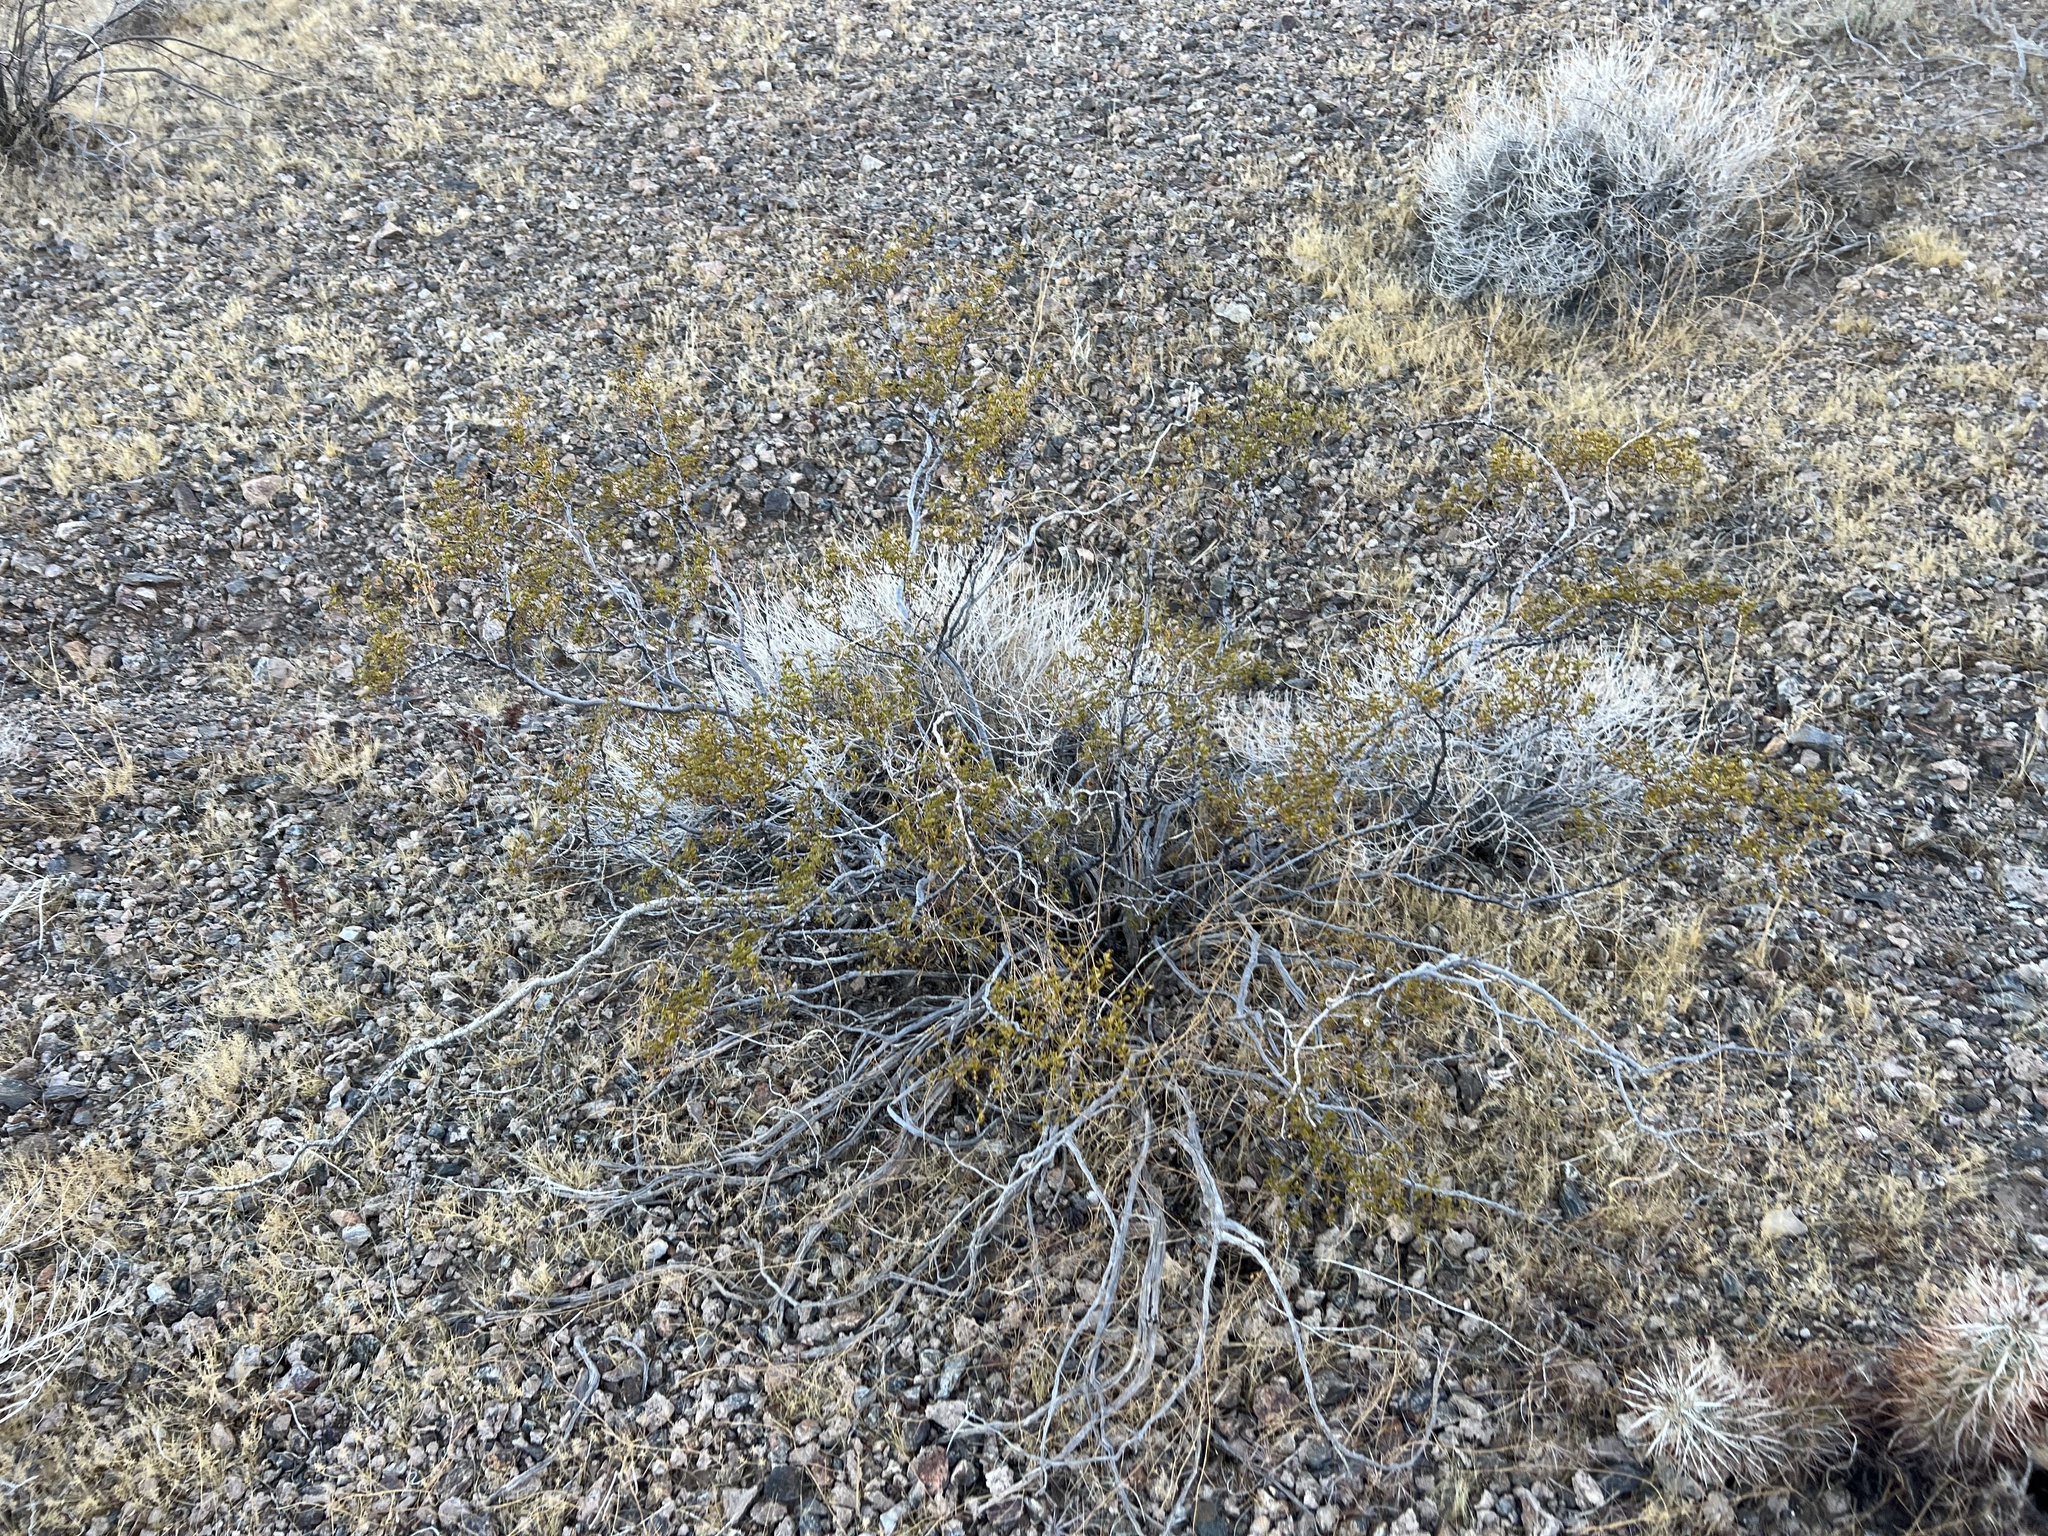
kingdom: Plantae
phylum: Tracheophyta
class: Magnoliopsida
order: Zygophyllales
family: Zygophyllaceae
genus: Larrea
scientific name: Larrea tridentata
